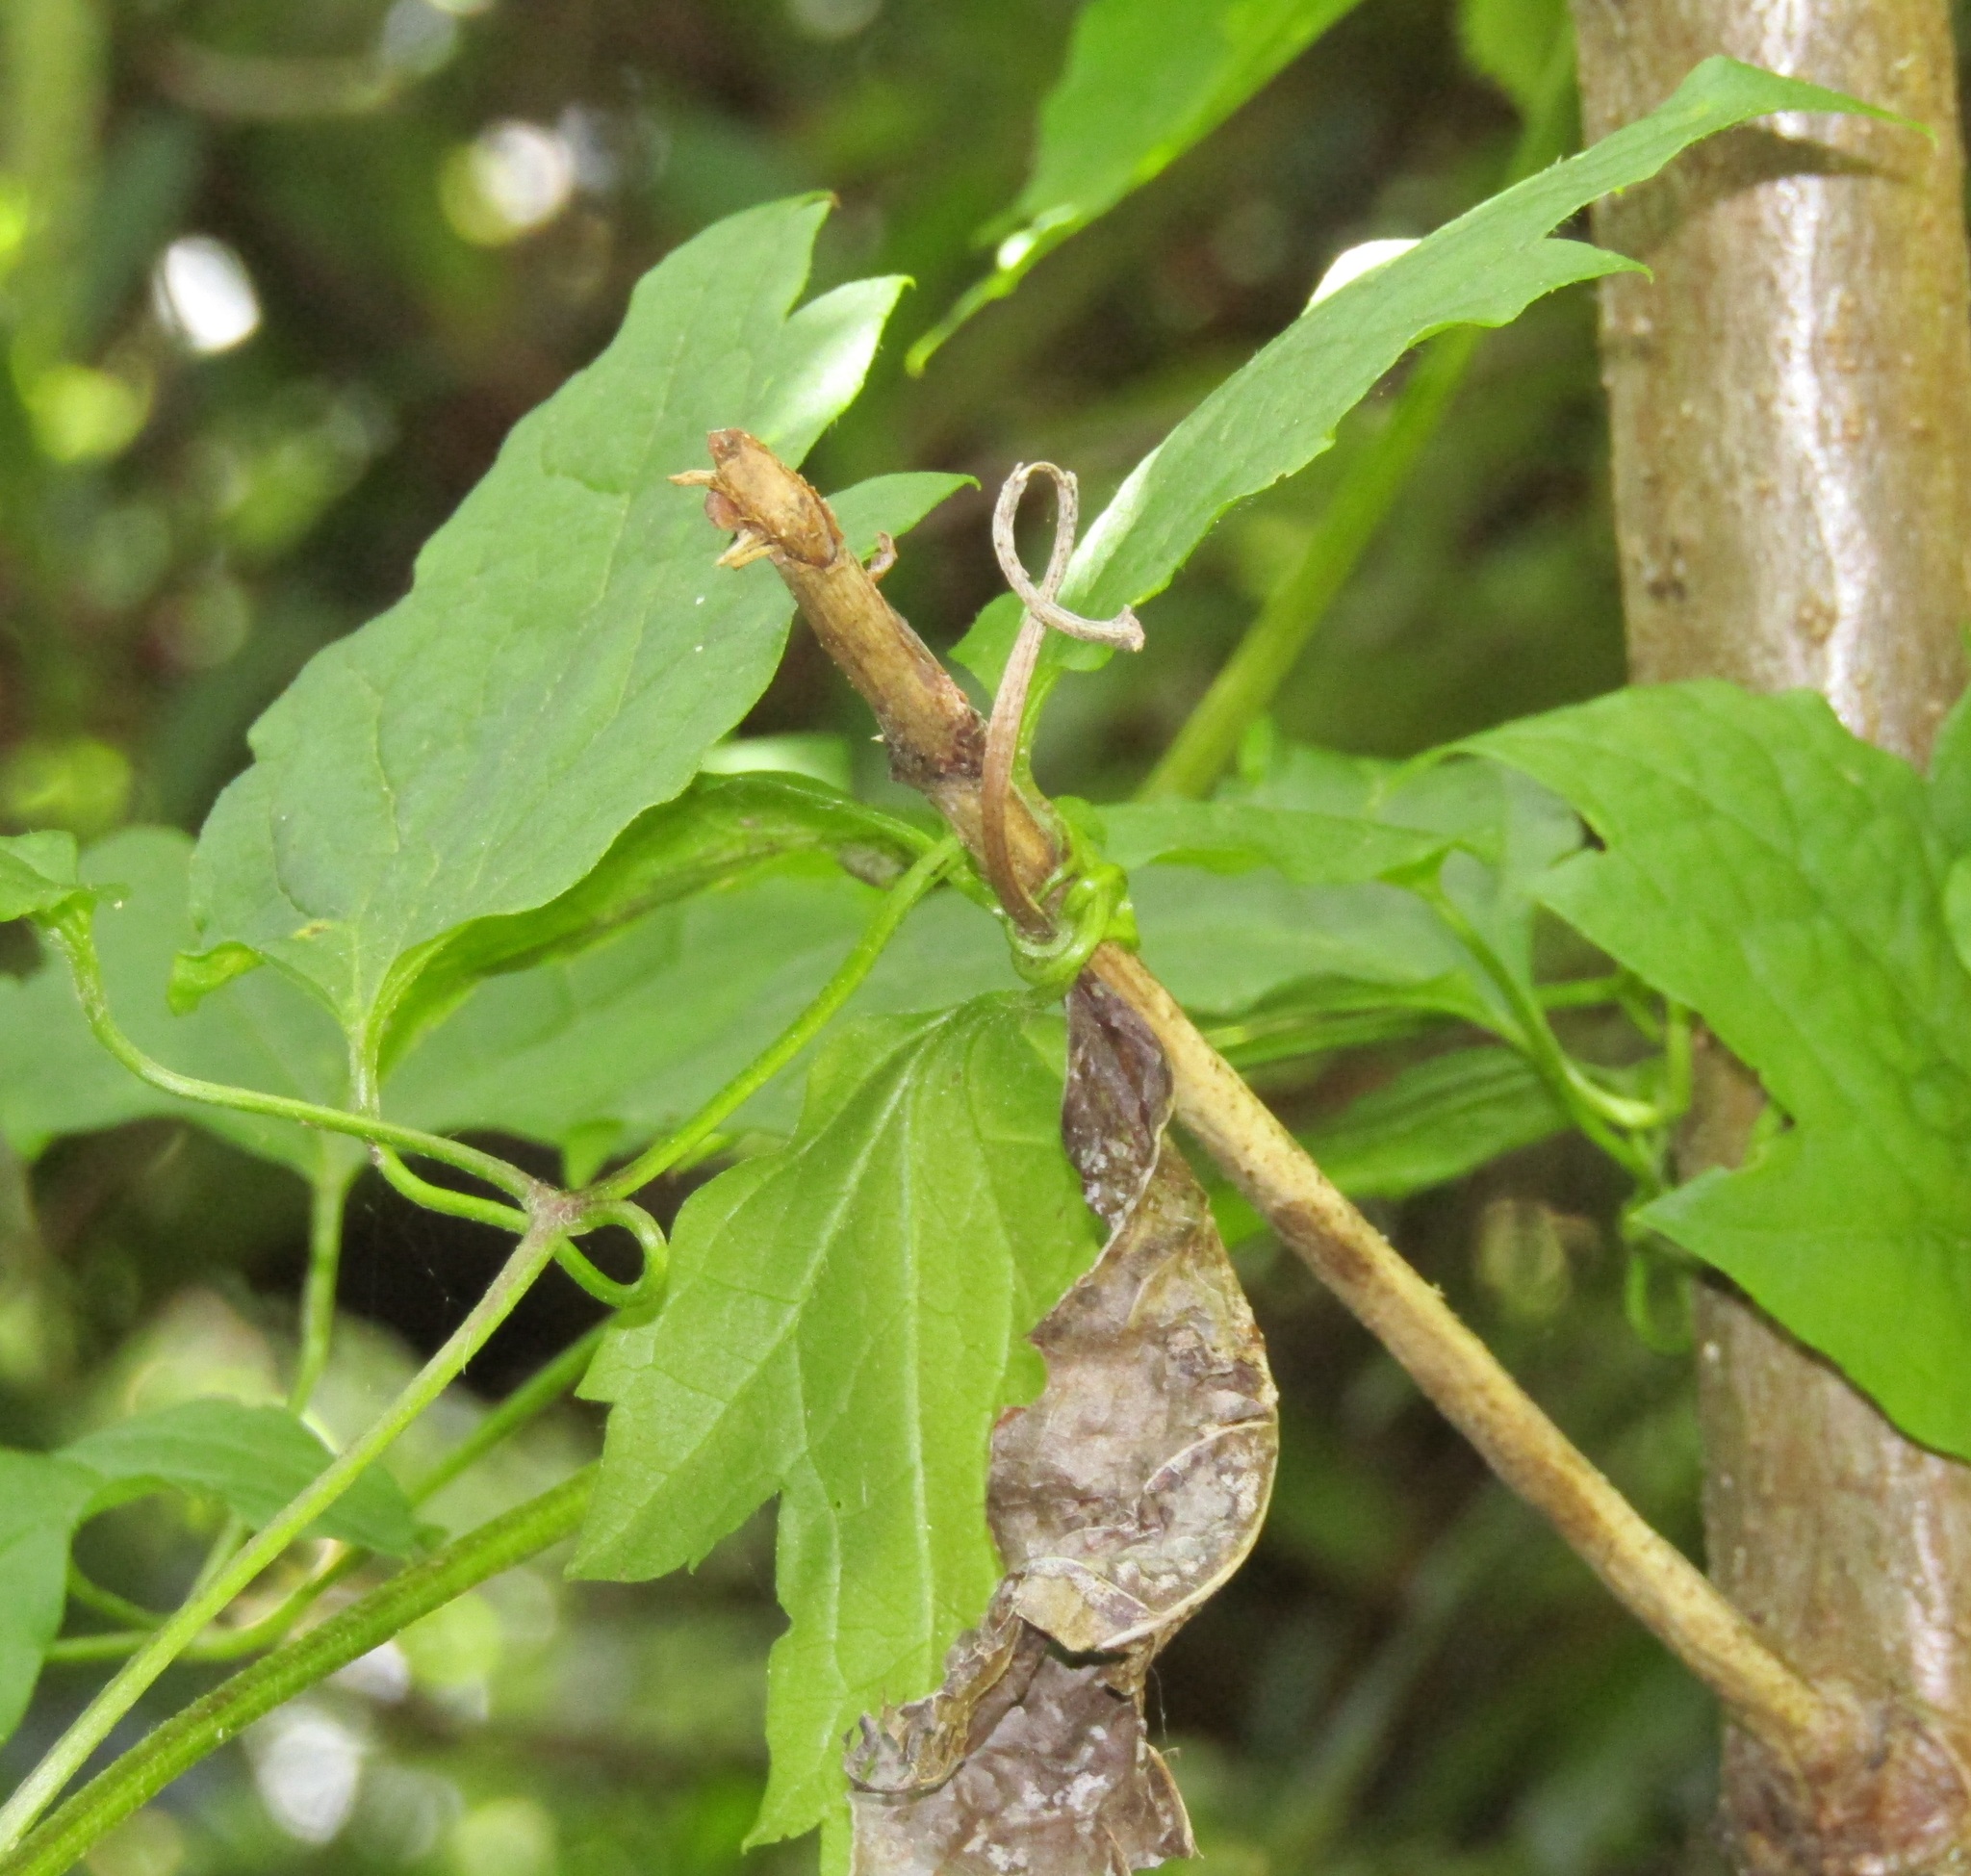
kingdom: Plantae
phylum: Tracheophyta
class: Magnoliopsida
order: Ranunculales
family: Ranunculaceae
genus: Clematis
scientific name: Clematis vitalba
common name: Evergreen clematis
